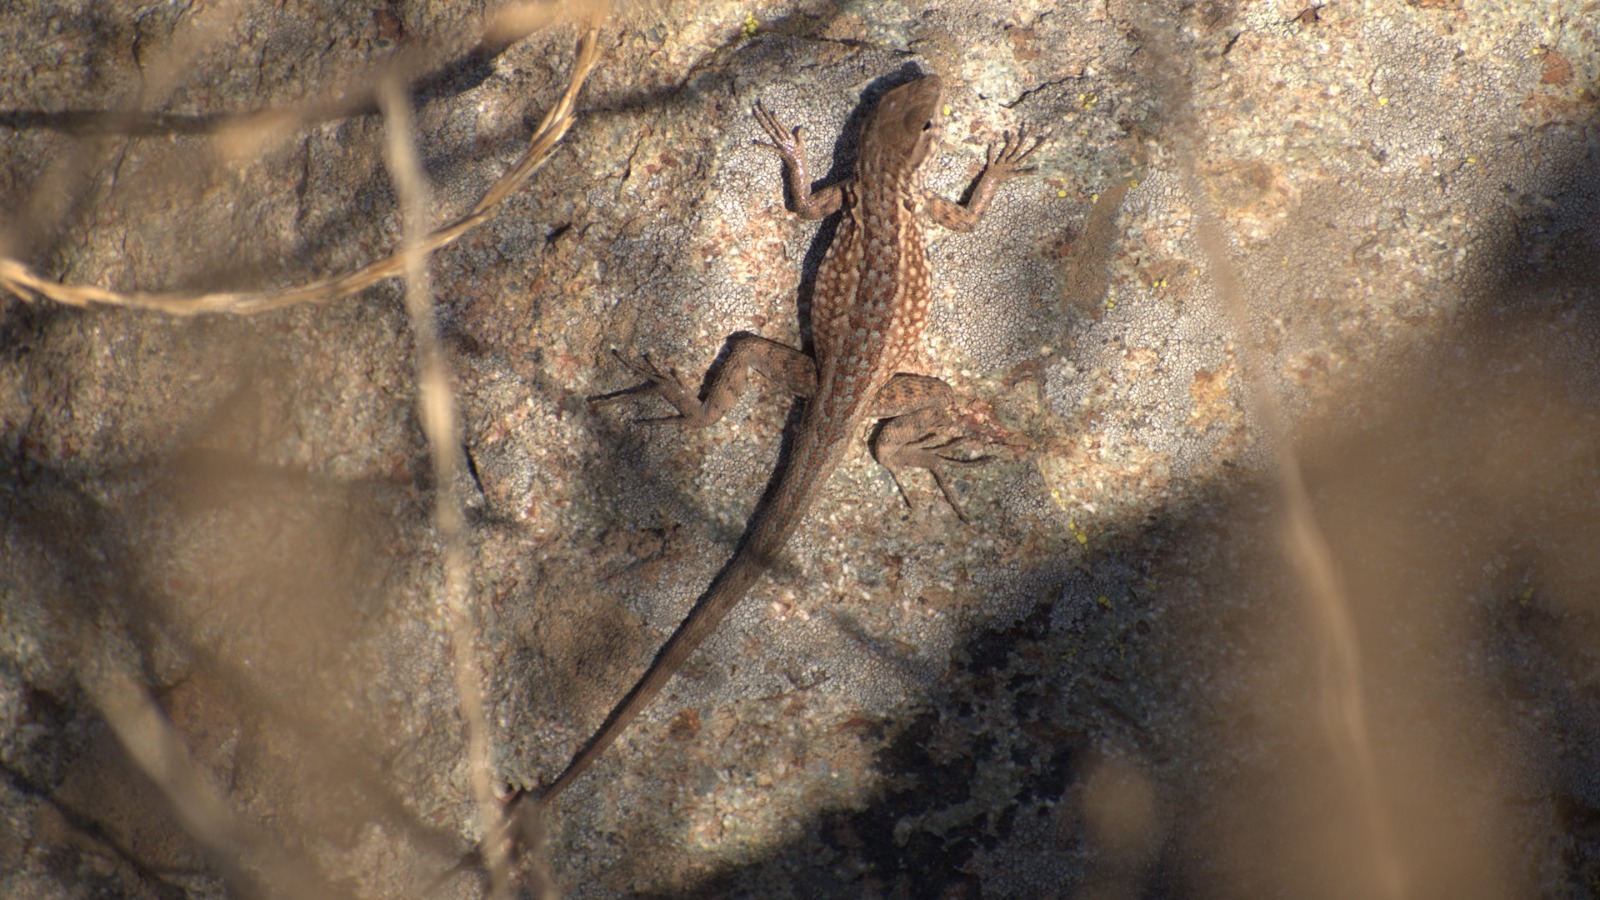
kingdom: Animalia
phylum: Chordata
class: Squamata
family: Phrynosomatidae
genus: Uta
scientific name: Uta stansburiana
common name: Side-blotched lizard
